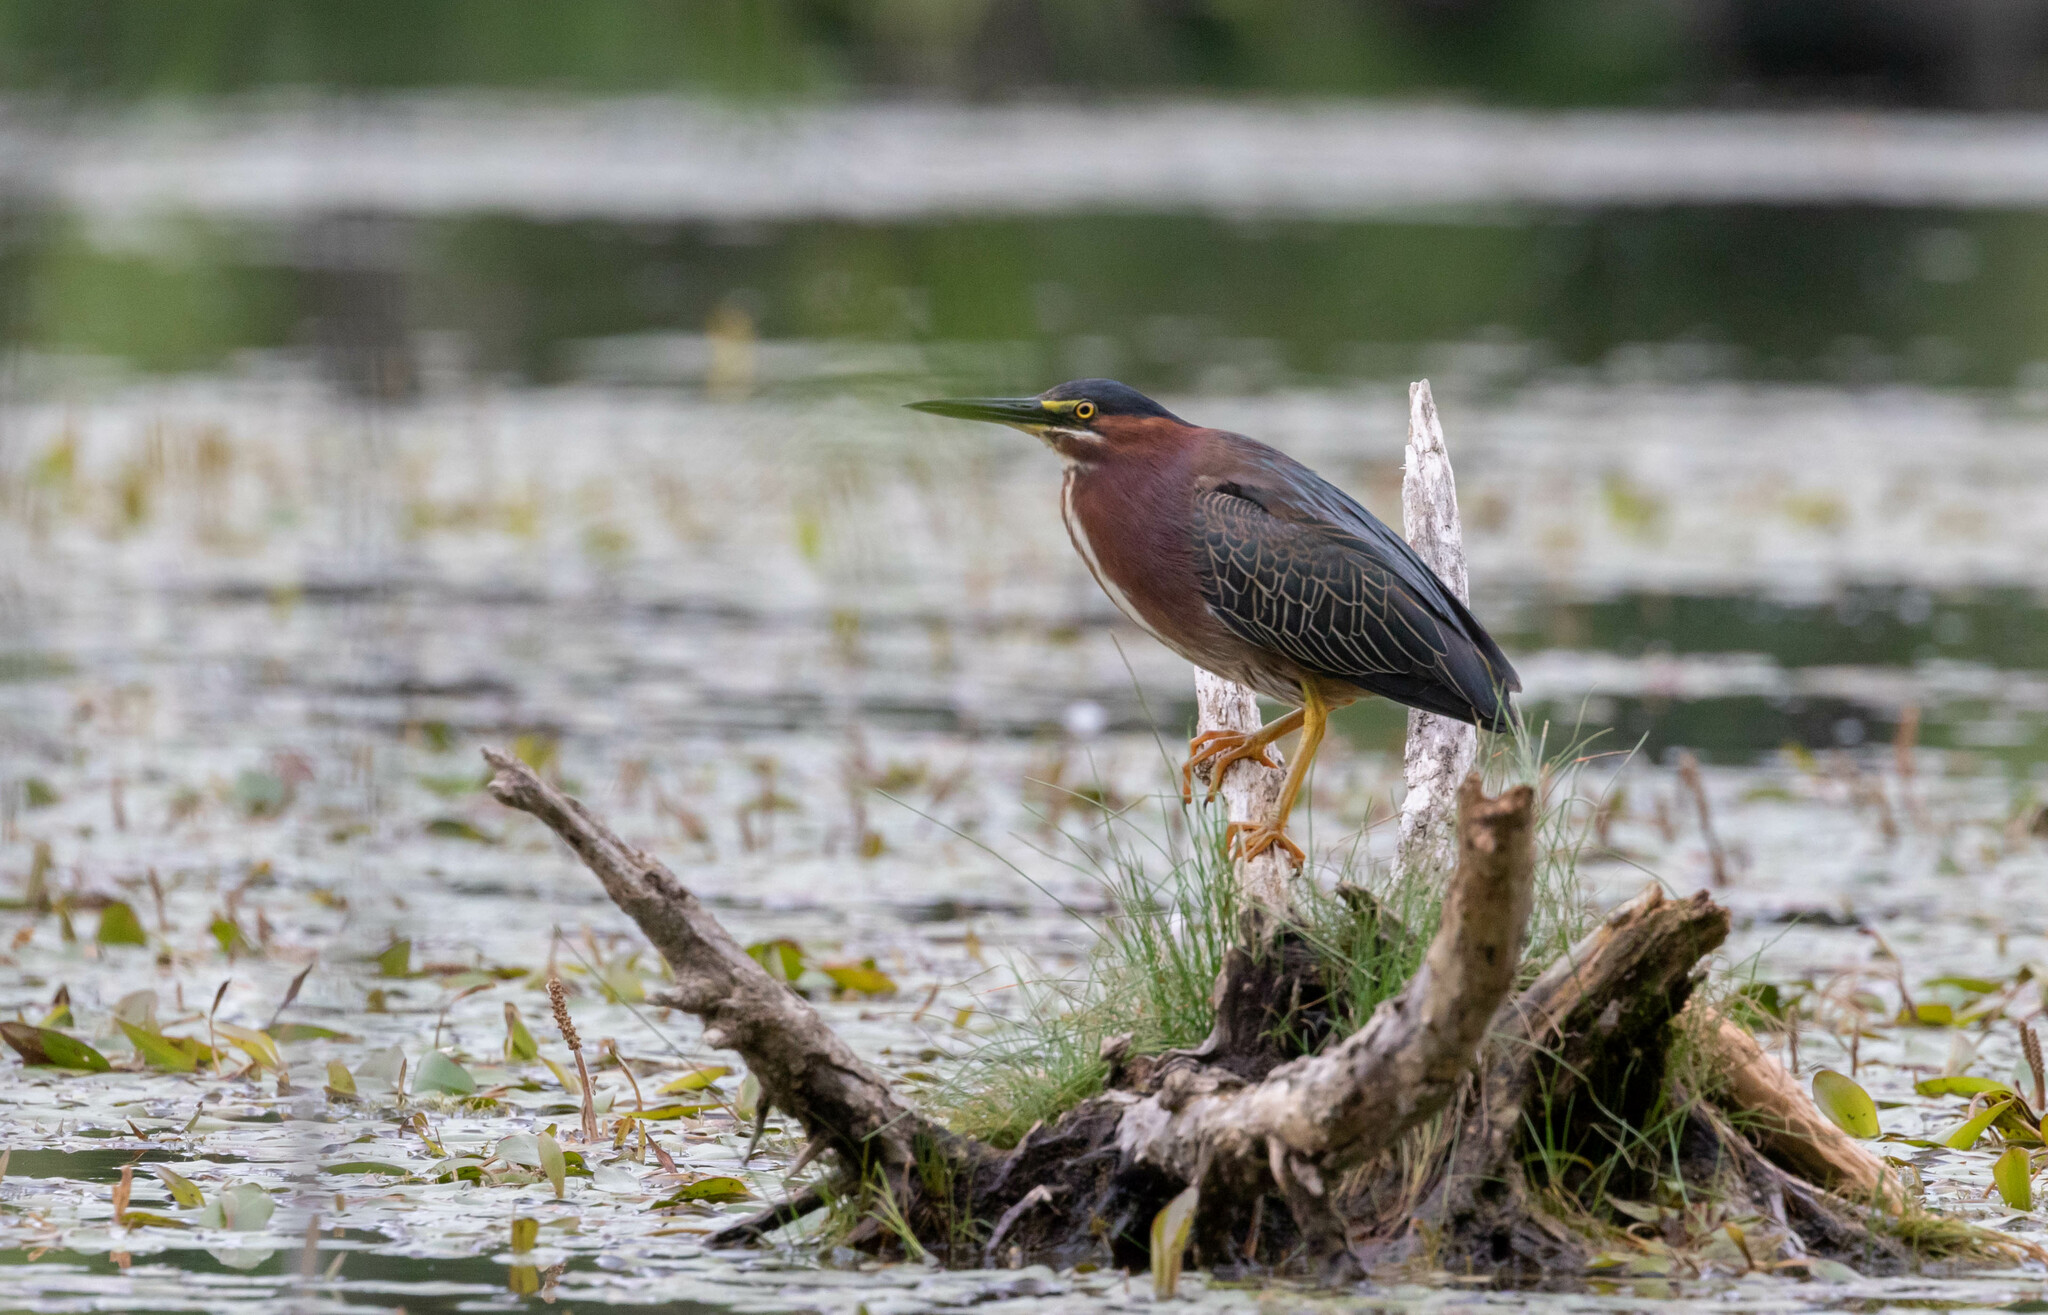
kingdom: Animalia
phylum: Chordata
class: Aves
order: Pelecaniformes
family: Ardeidae
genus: Butorides
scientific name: Butorides virescens
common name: Green heron
